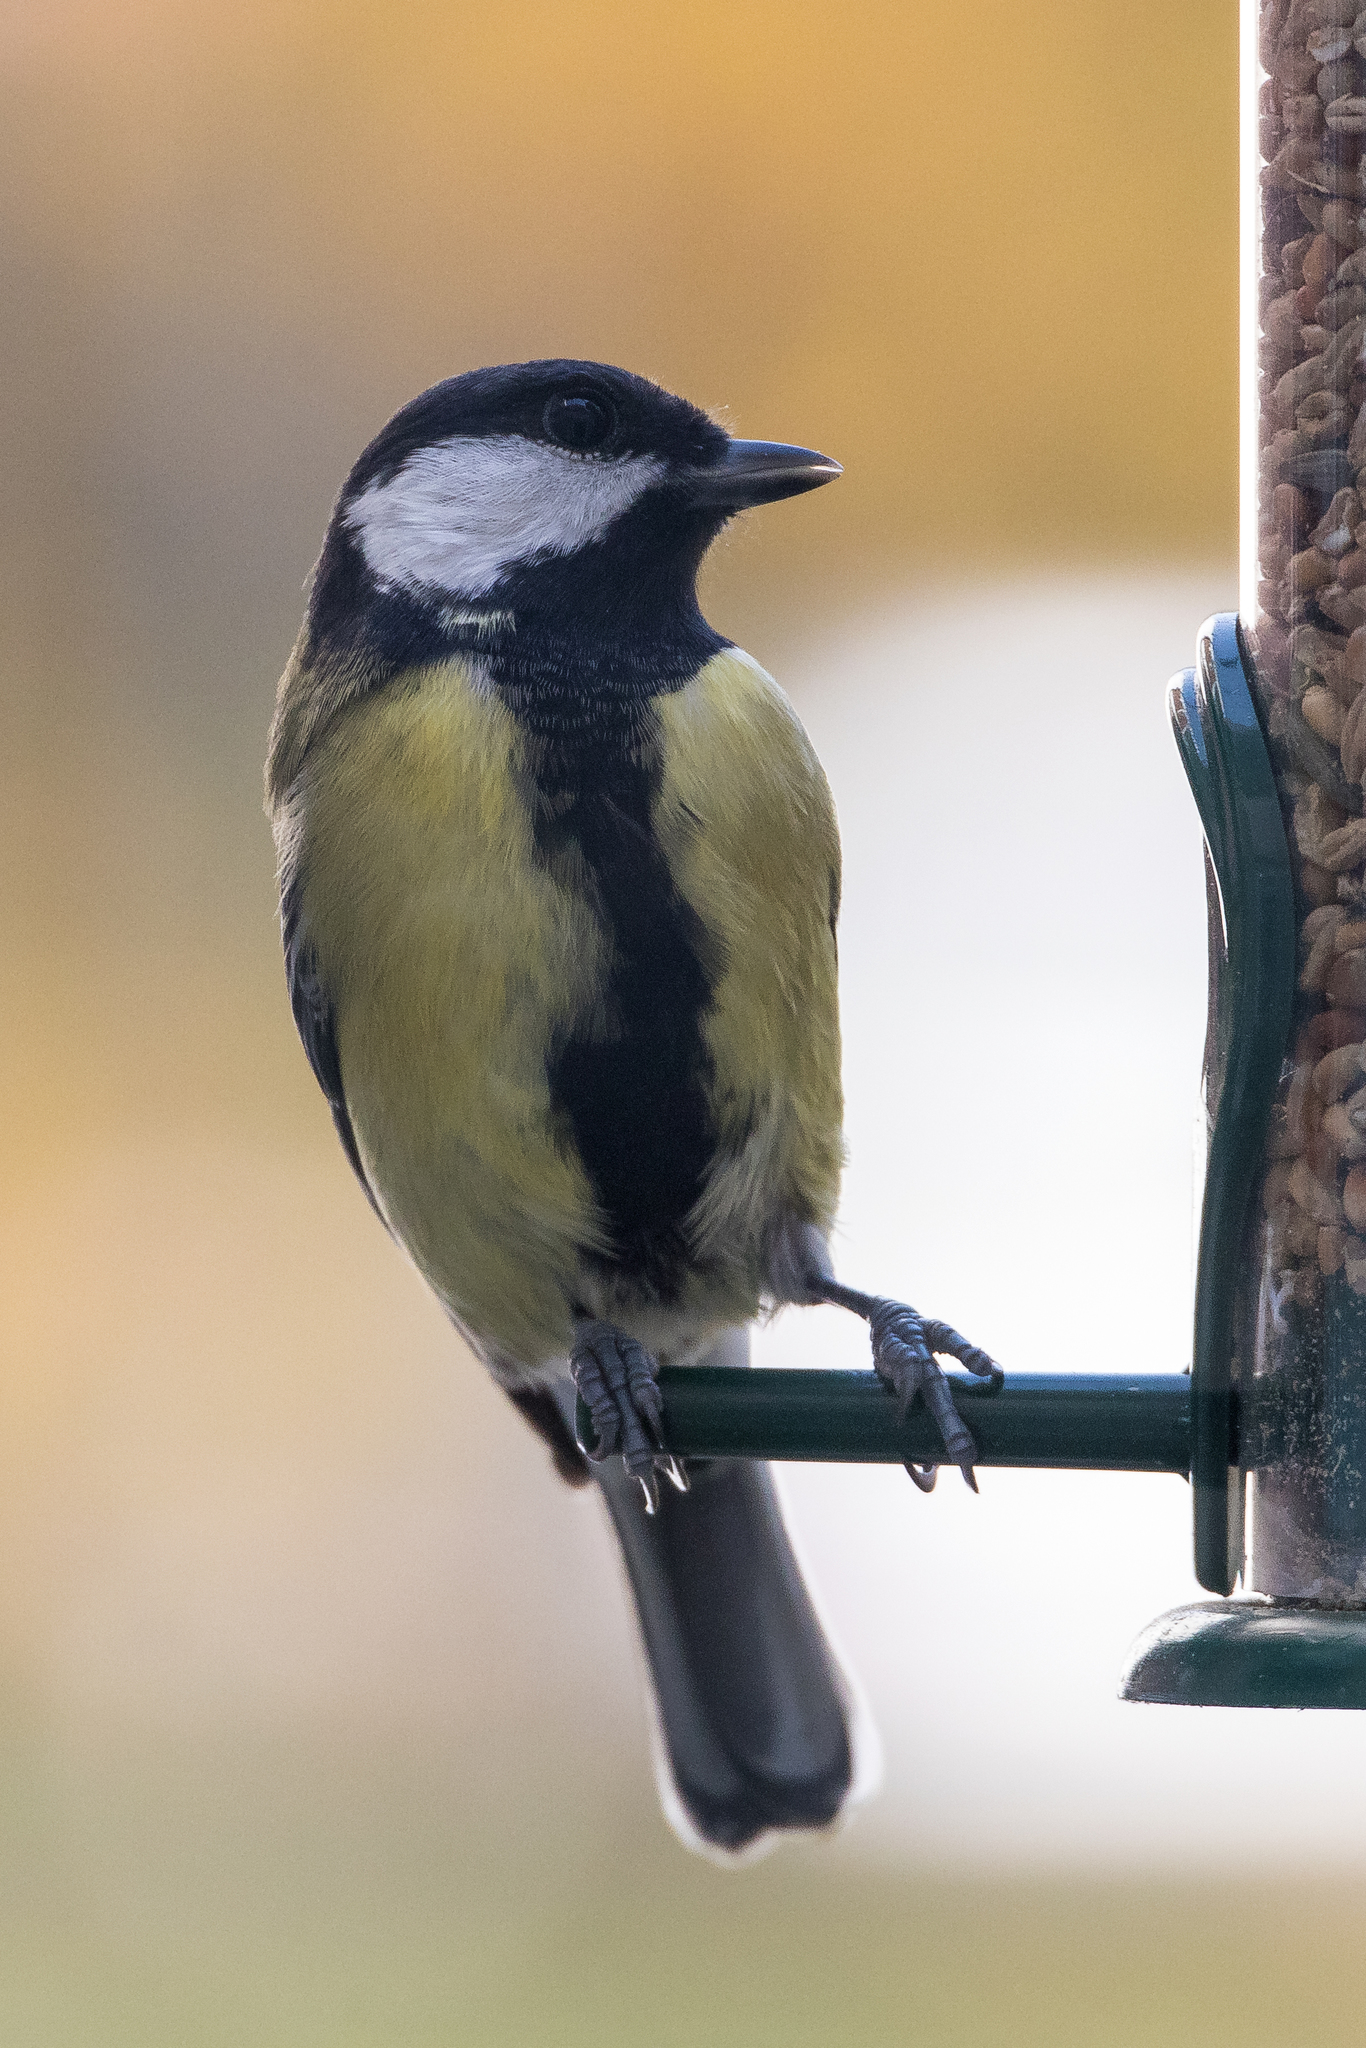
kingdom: Animalia
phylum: Chordata
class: Aves
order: Passeriformes
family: Paridae
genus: Parus
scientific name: Parus major
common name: Great tit
